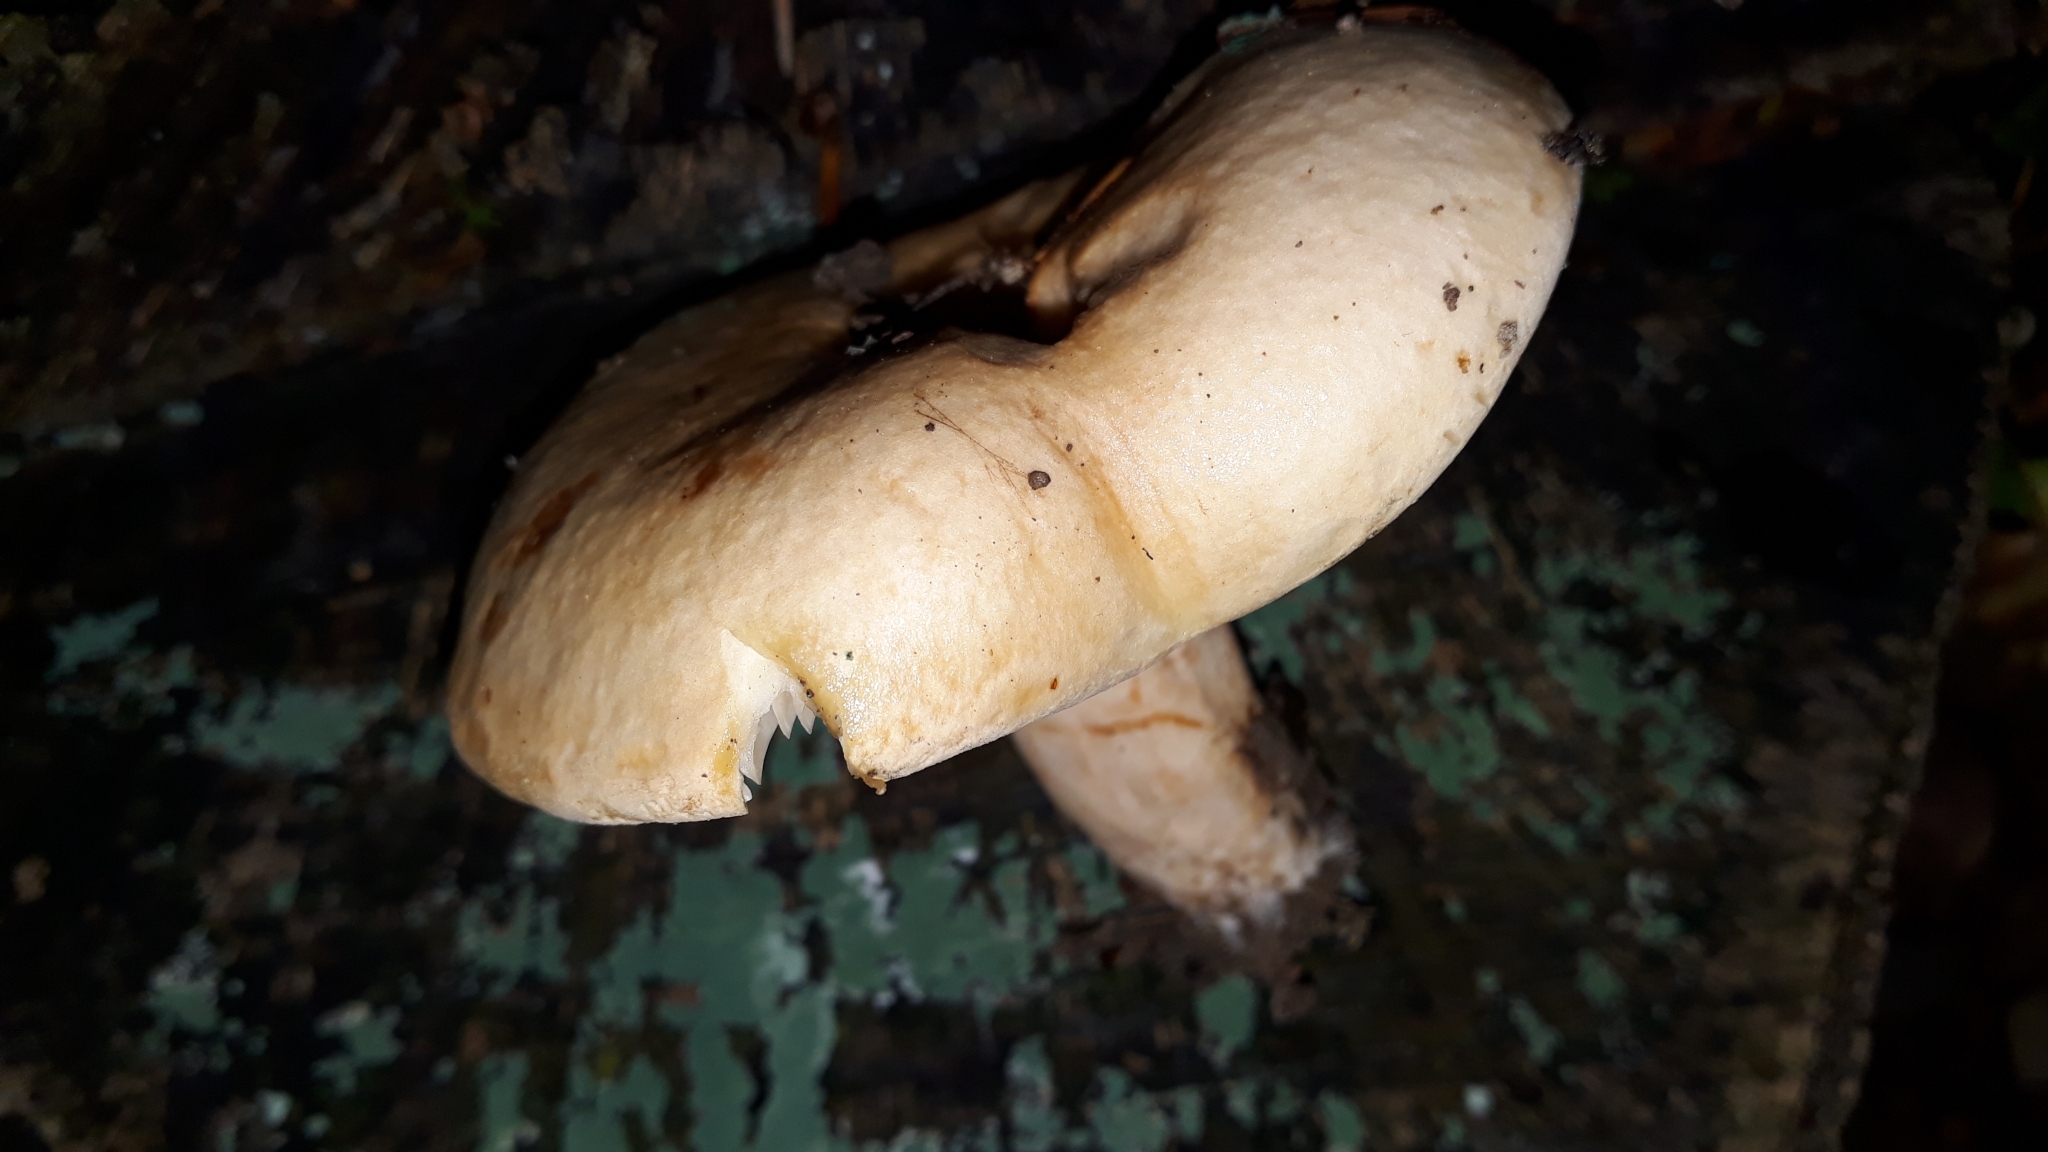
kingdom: Fungi
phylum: Basidiomycota
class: Agaricomycetes
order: Russulales
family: Russulaceae
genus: Lactarius
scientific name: Lactarius pallidus
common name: Pale milkcap
